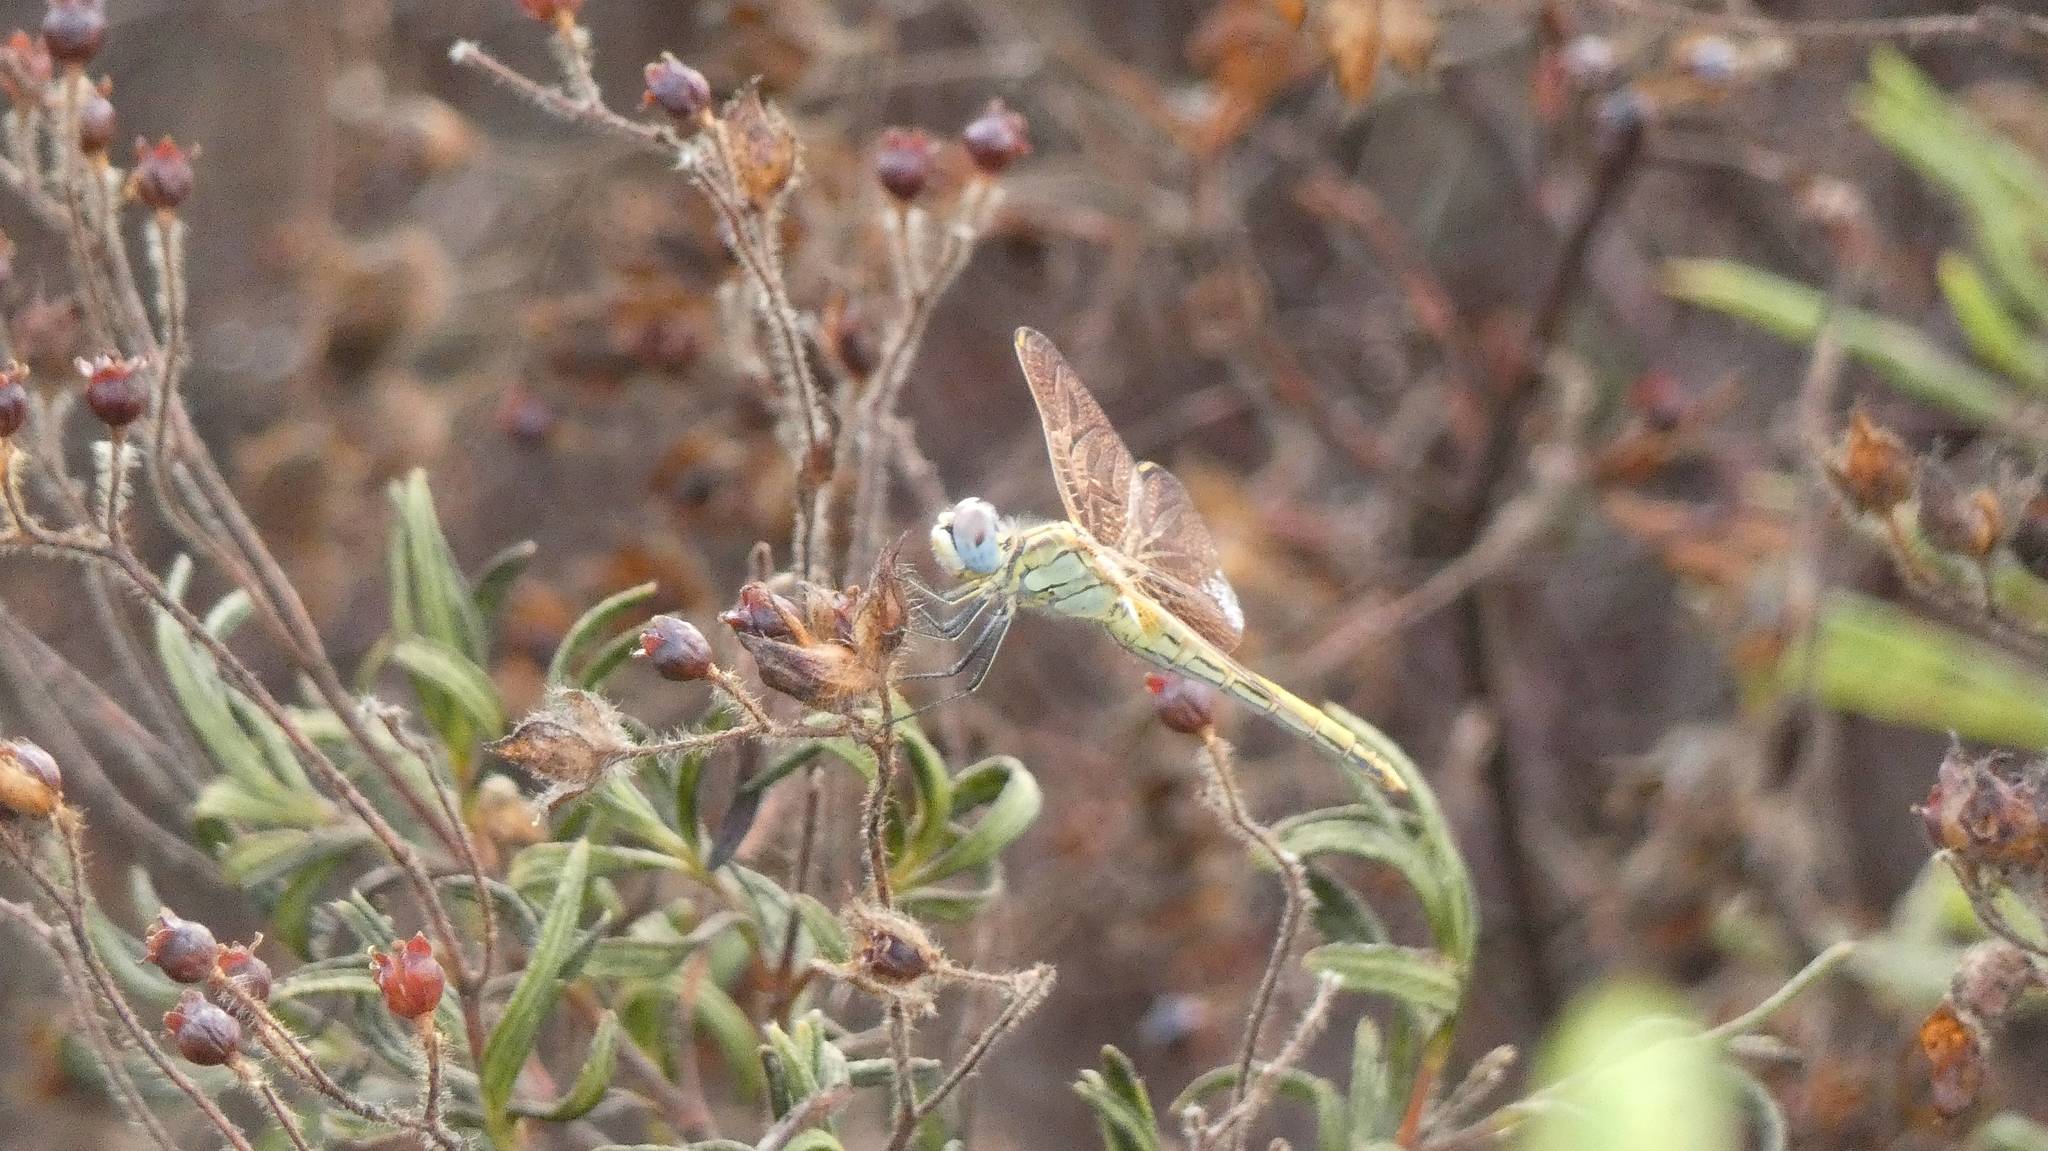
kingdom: Animalia
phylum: Arthropoda
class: Insecta
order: Odonata
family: Libellulidae
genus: Sympetrum
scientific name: Sympetrum fonscolombii
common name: Red-veined darter
